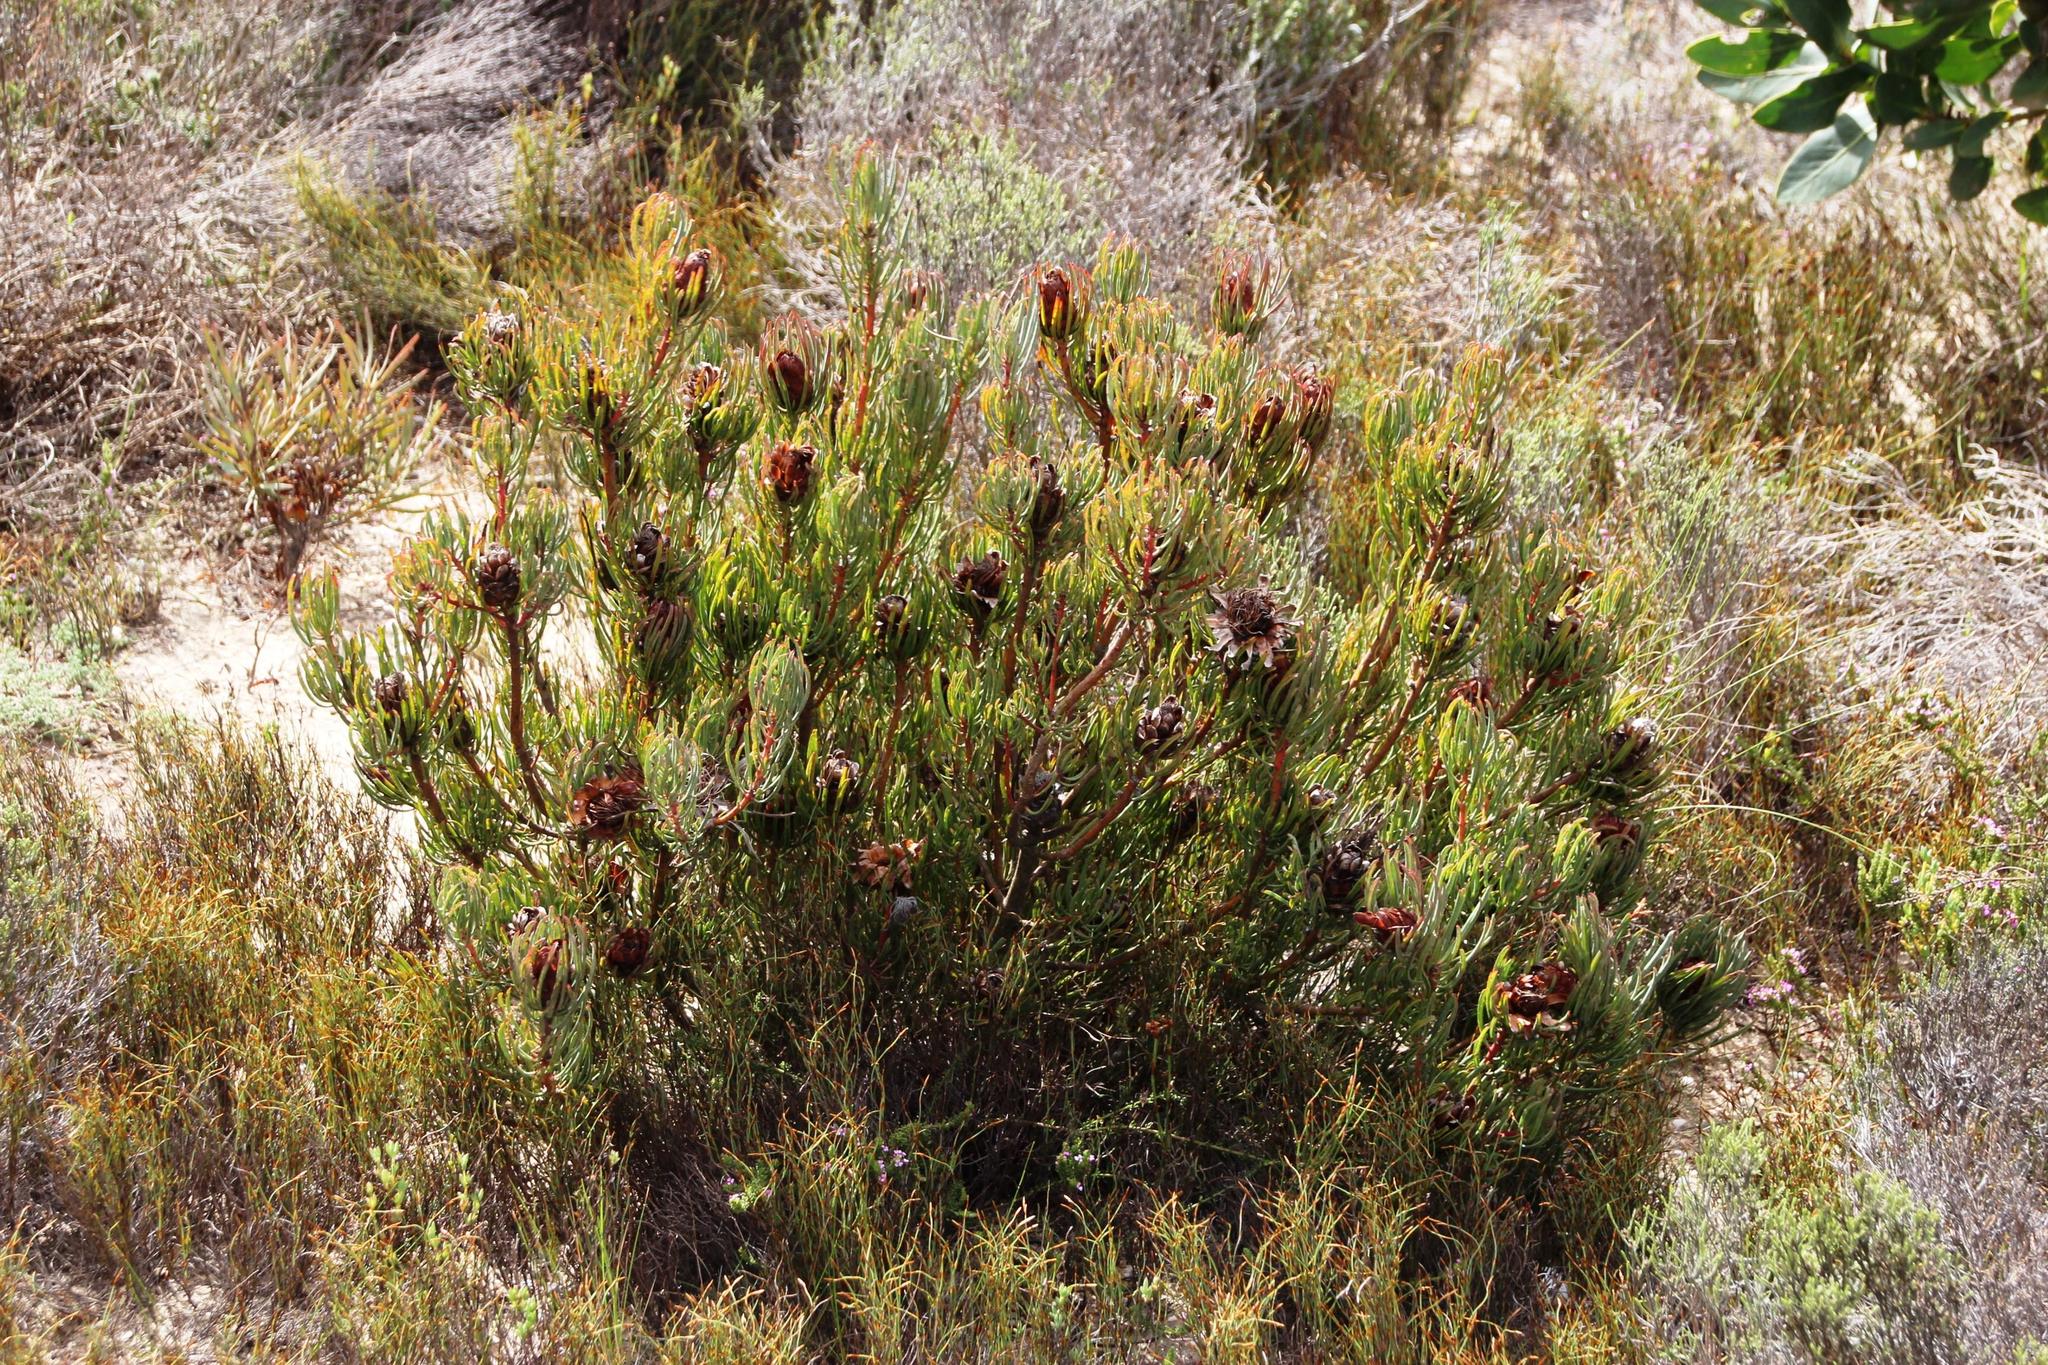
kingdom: Plantae
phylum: Tracheophyta
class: Magnoliopsida
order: Proteales
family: Proteaceae
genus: Protea
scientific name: Protea canaliculata
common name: Groove-leaf sugarbush
